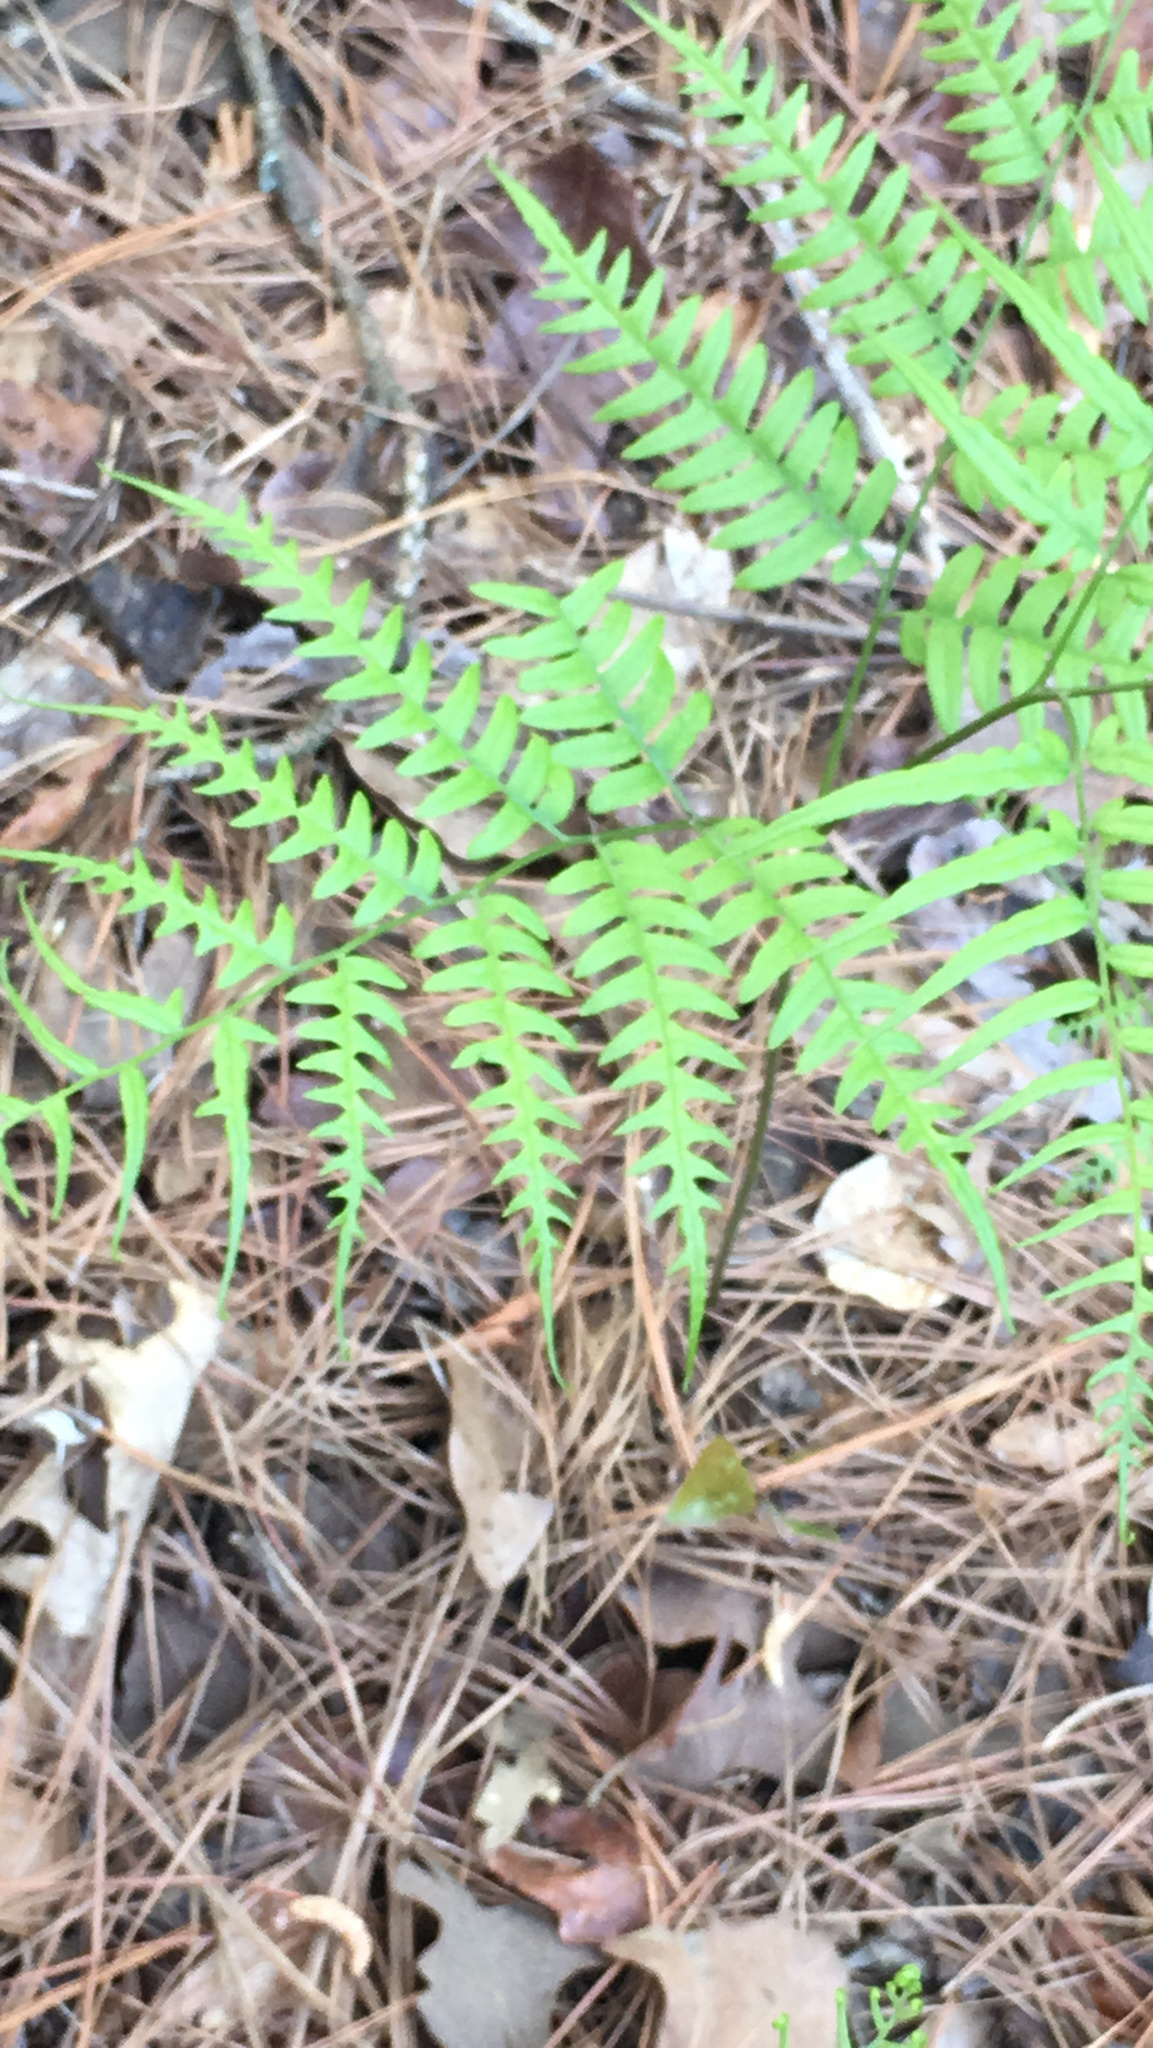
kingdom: Plantae
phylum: Tracheophyta
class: Polypodiopsida
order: Polypodiales
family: Dennstaedtiaceae
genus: Pteridium
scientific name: Pteridium
